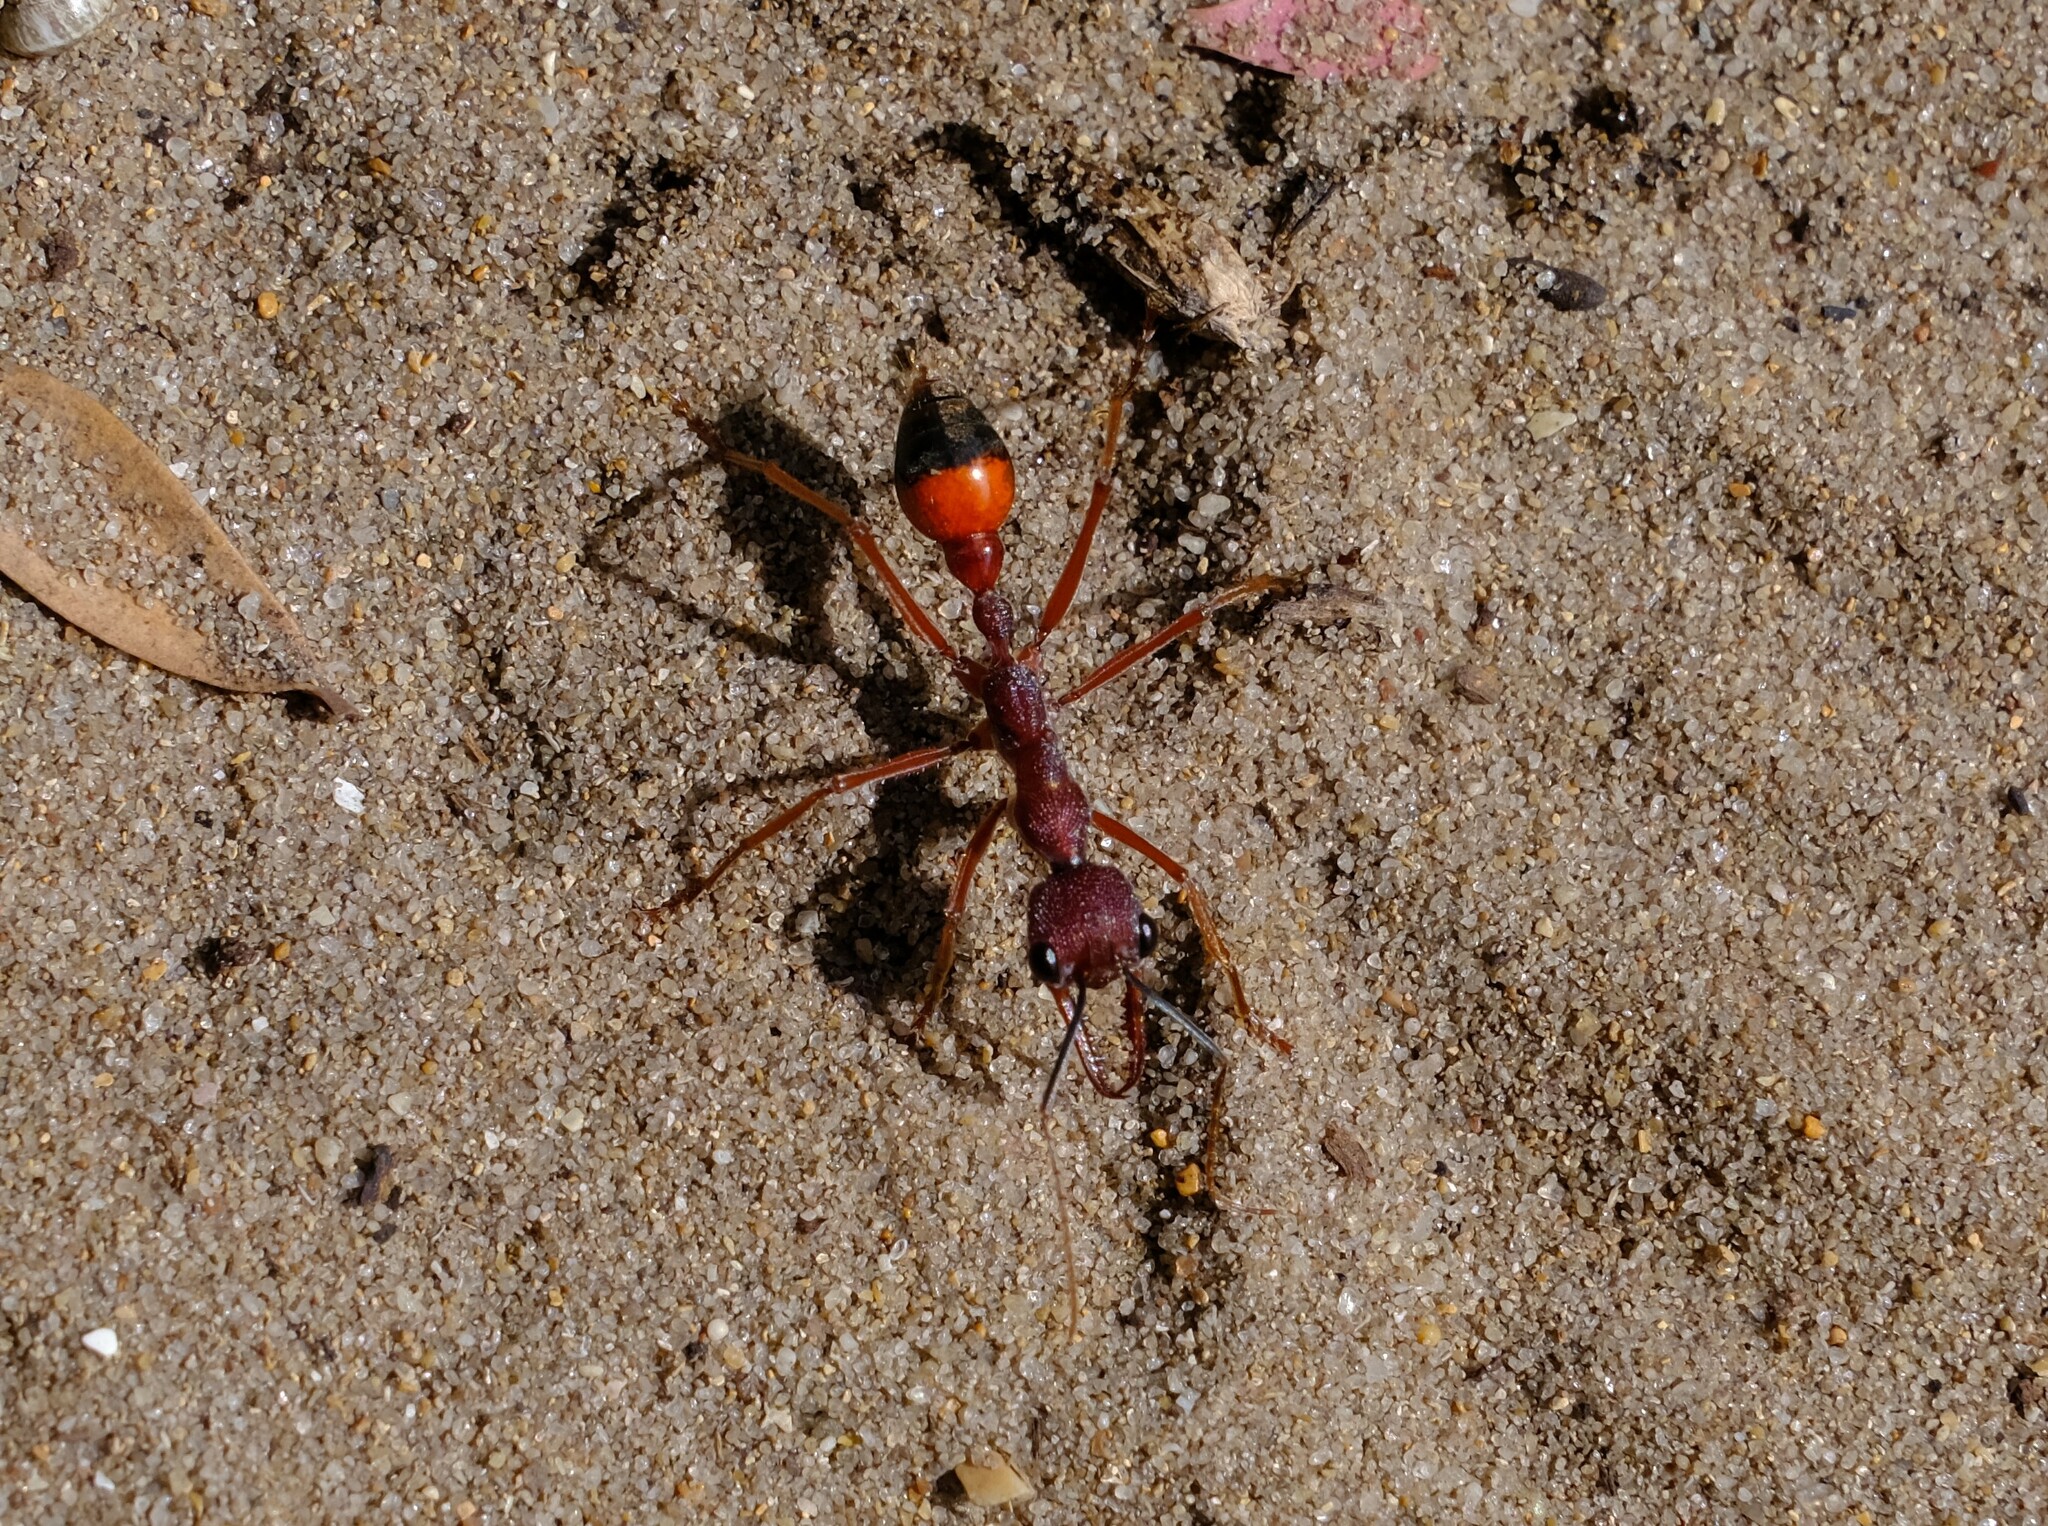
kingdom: Animalia
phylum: Arthropoda
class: Insecta
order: Hymenoptera
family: Formicidae
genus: Myrmecia
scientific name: Myrmecia nigriscapa
